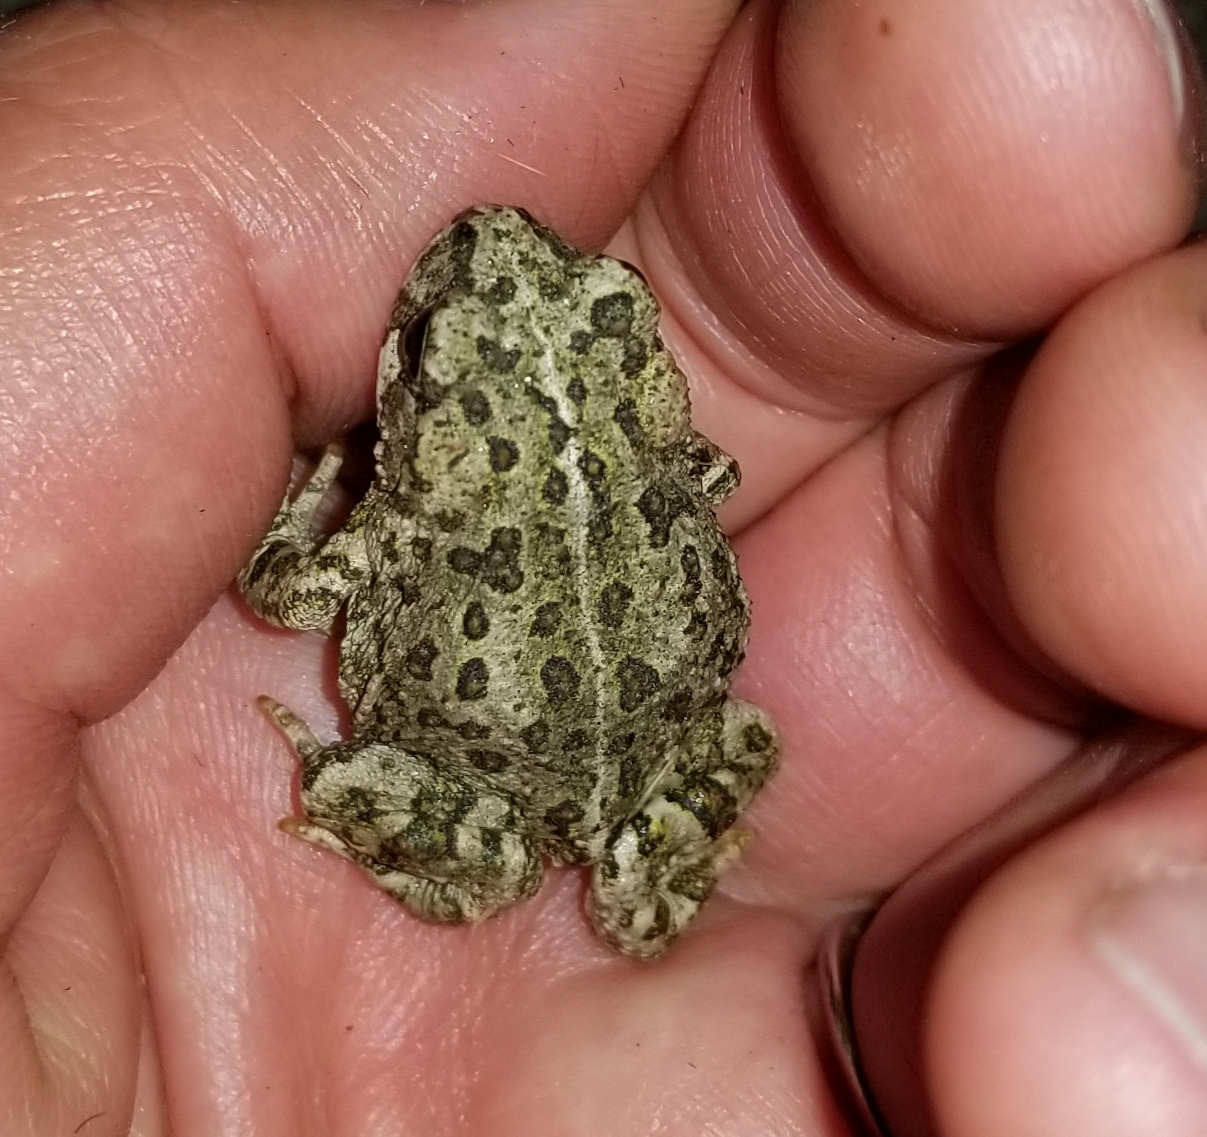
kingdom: Animalia
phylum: Chordata
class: Amphibia
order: Anura
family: Bufonidae
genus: Anaxyrus
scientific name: Anaxyrus boreas
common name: Western toad
